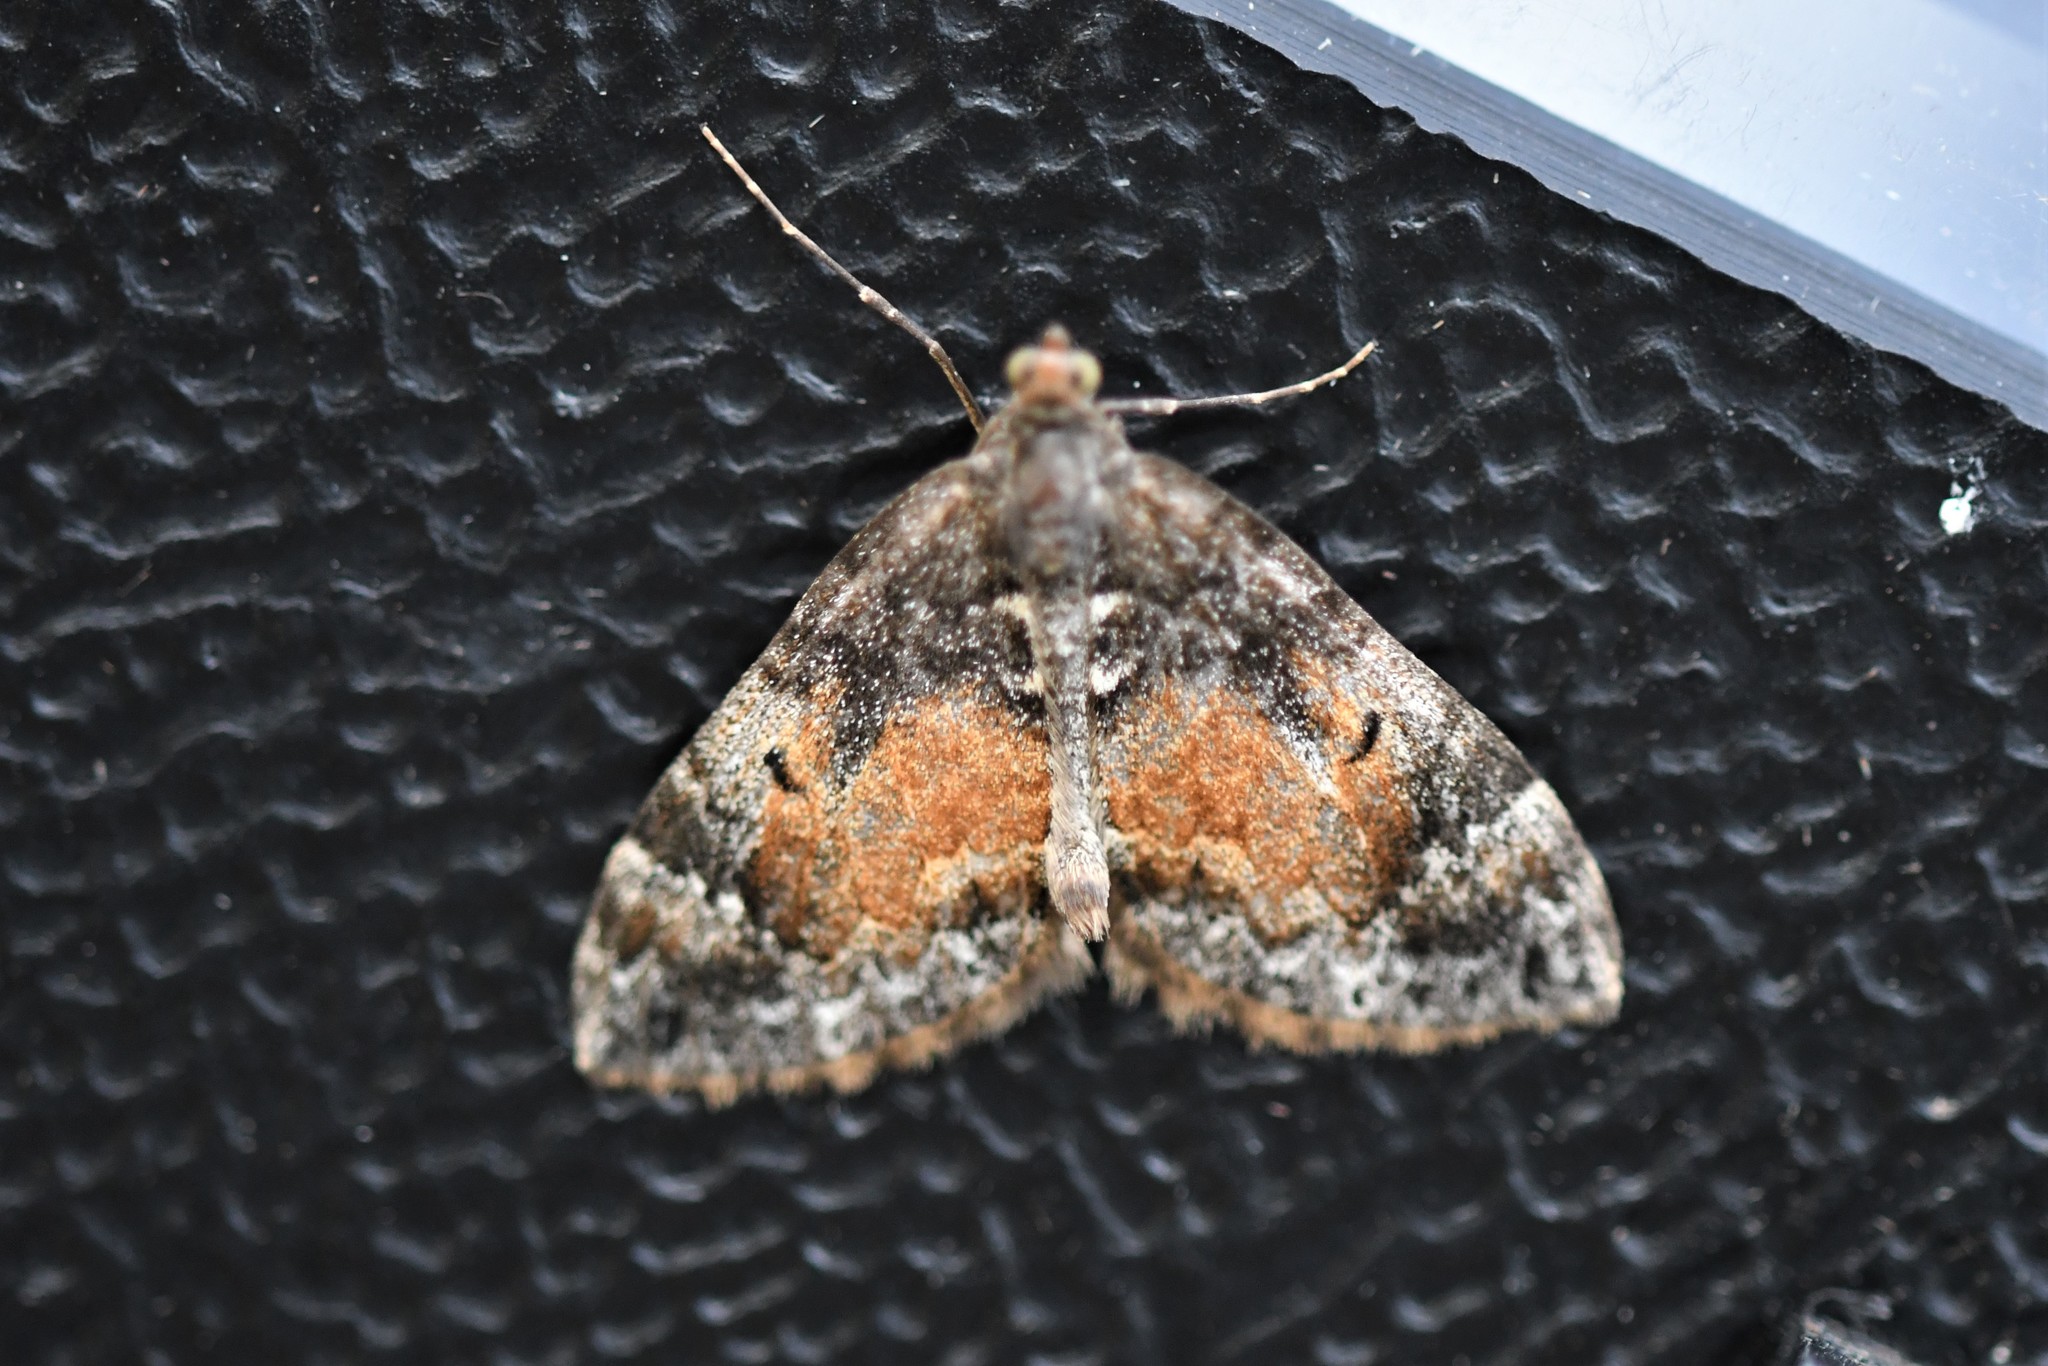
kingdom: Animalia
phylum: Arthropoda
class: Insecta
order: Lepidoptera
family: Geometridae
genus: Dysstroma
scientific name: Dysstroma truncata
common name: Common marbled carpet
